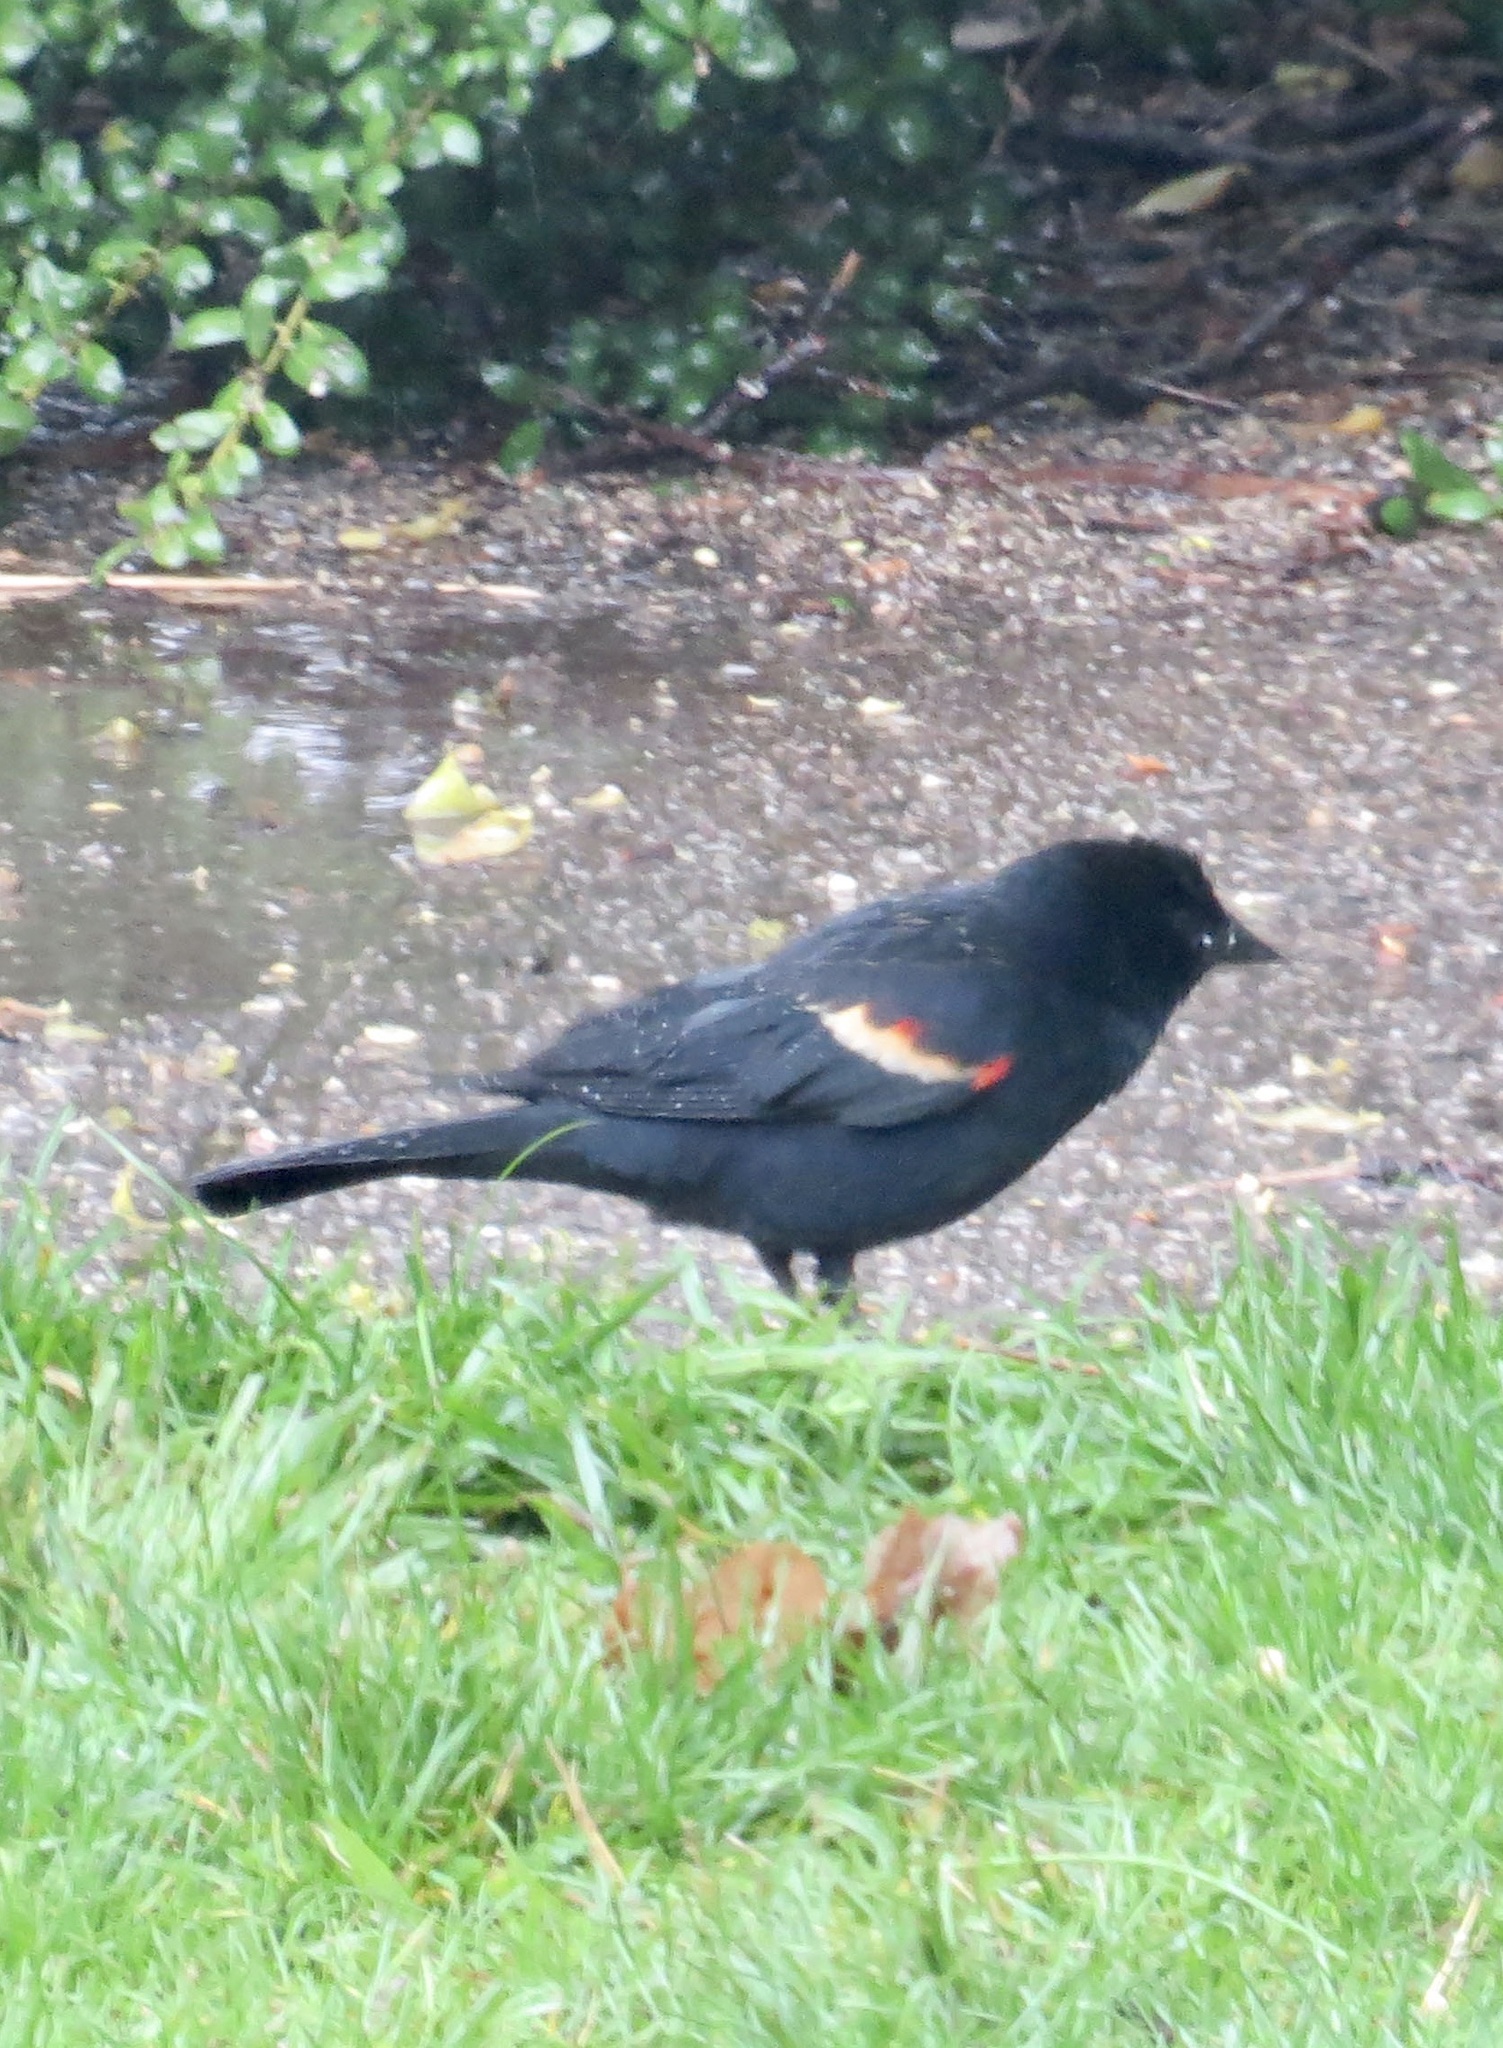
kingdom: Animalia
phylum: Chordata
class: Aves
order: Passeriformes
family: Icteridae
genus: Agelaius
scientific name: Agelaius phoeniceus
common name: Red-winged blackbird
